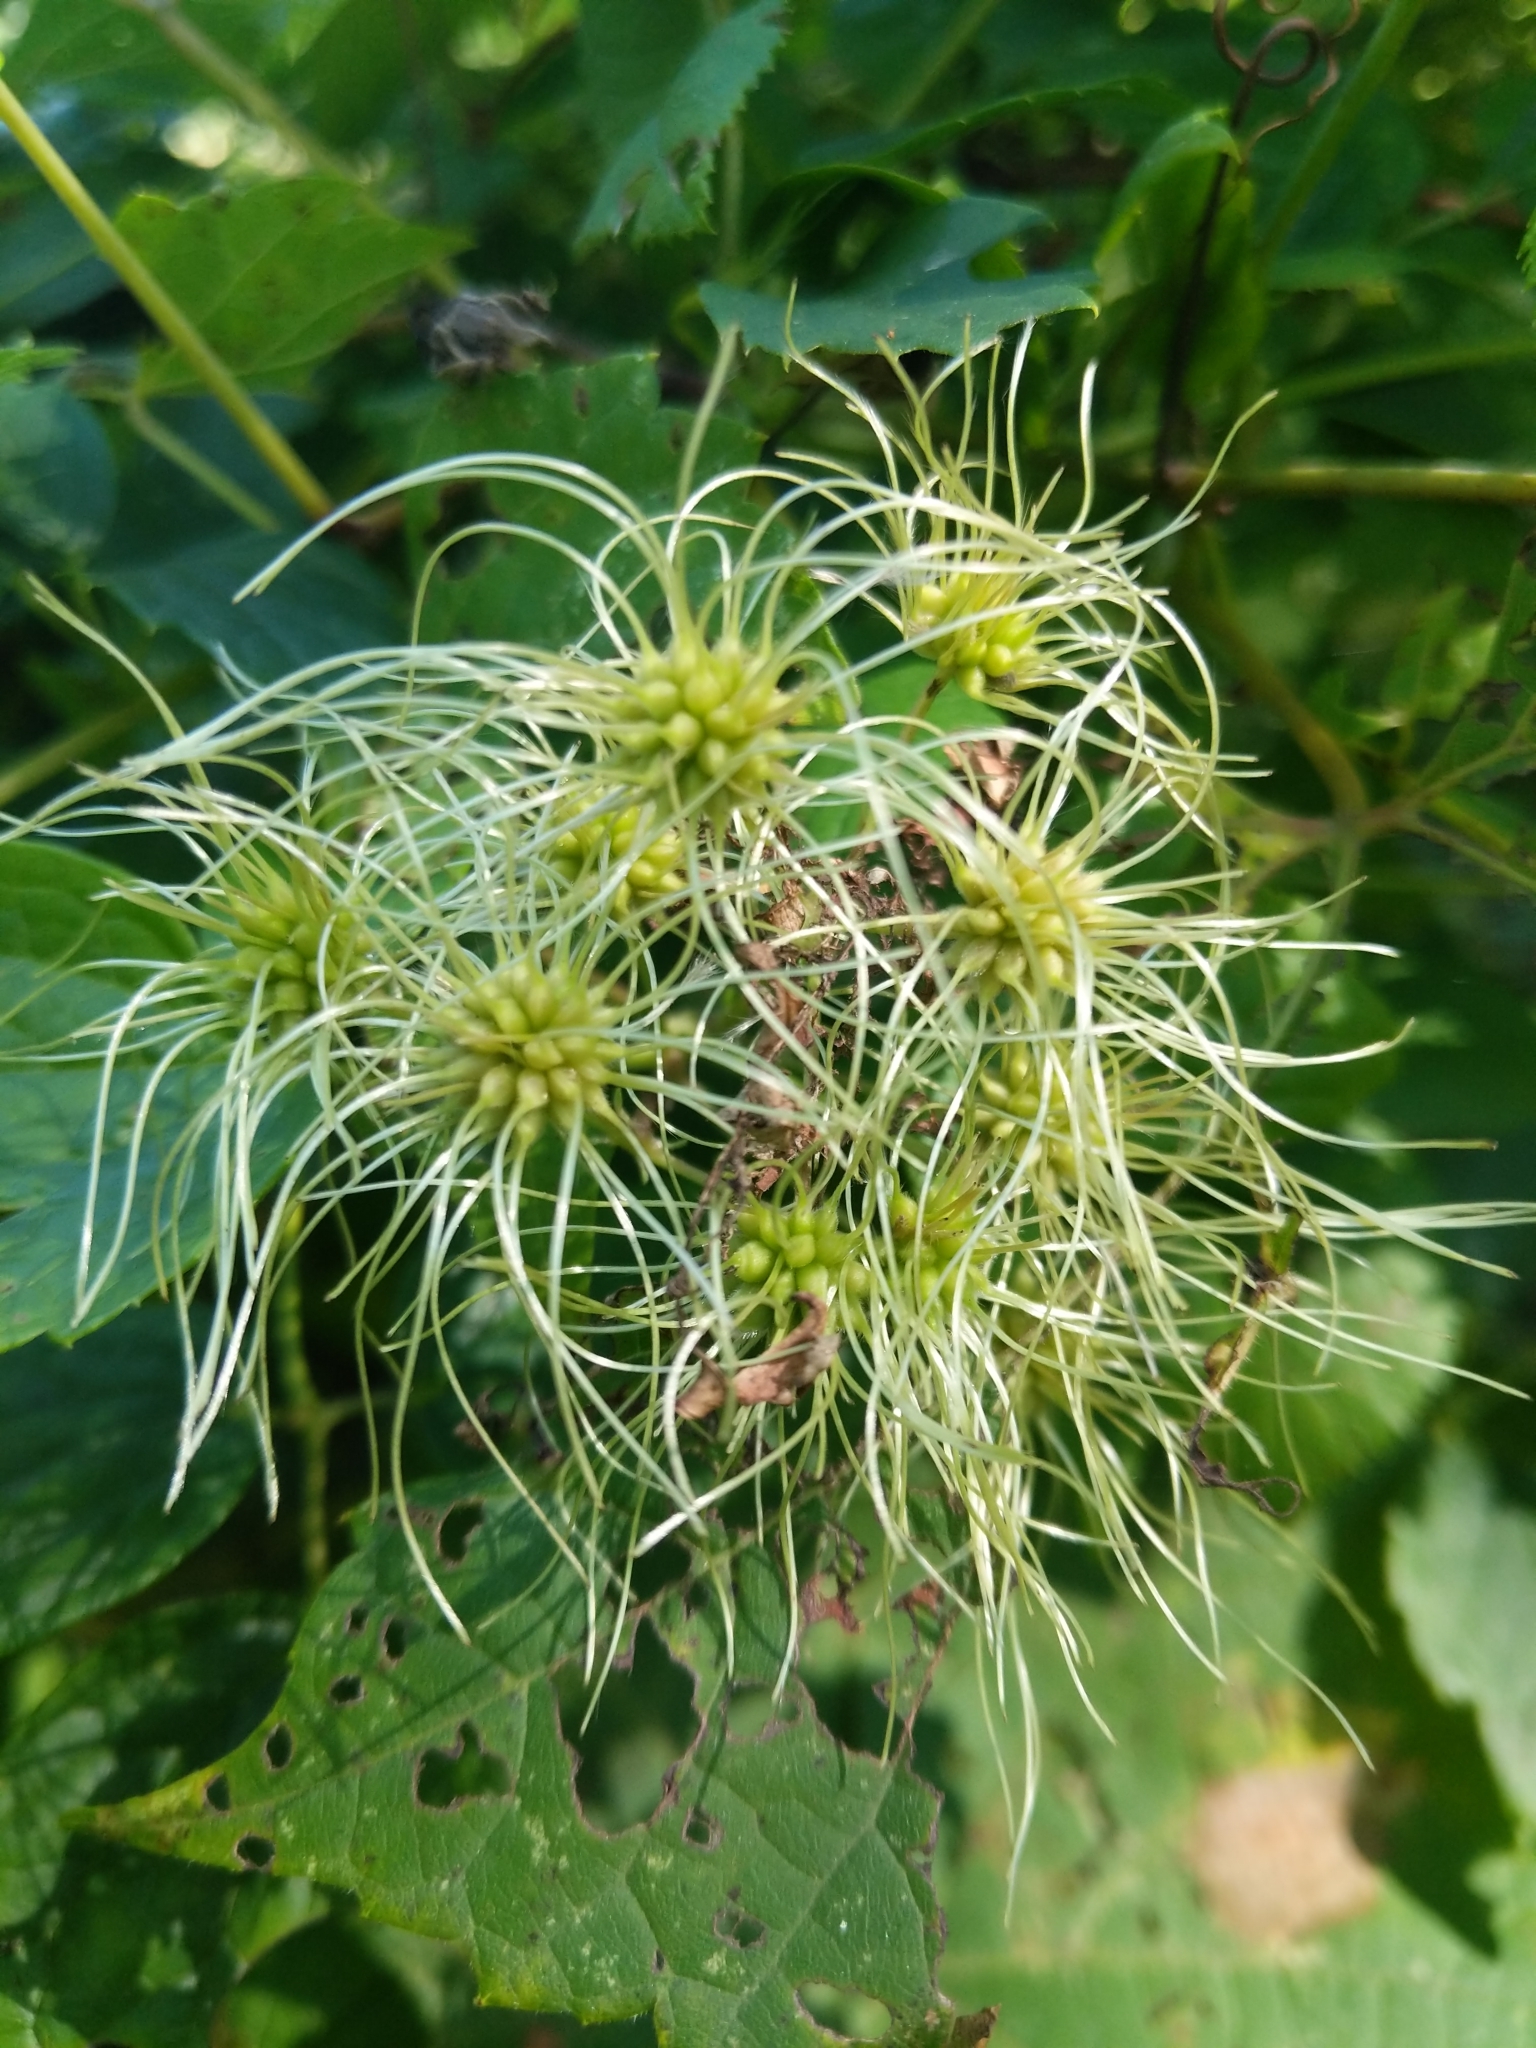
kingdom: Plantae
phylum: Tracheophyta
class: Magnoliopsida
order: Ranunculales
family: Ranunculaceae
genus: Clematis
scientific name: Clematis virginiana
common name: Virgin's-bower
